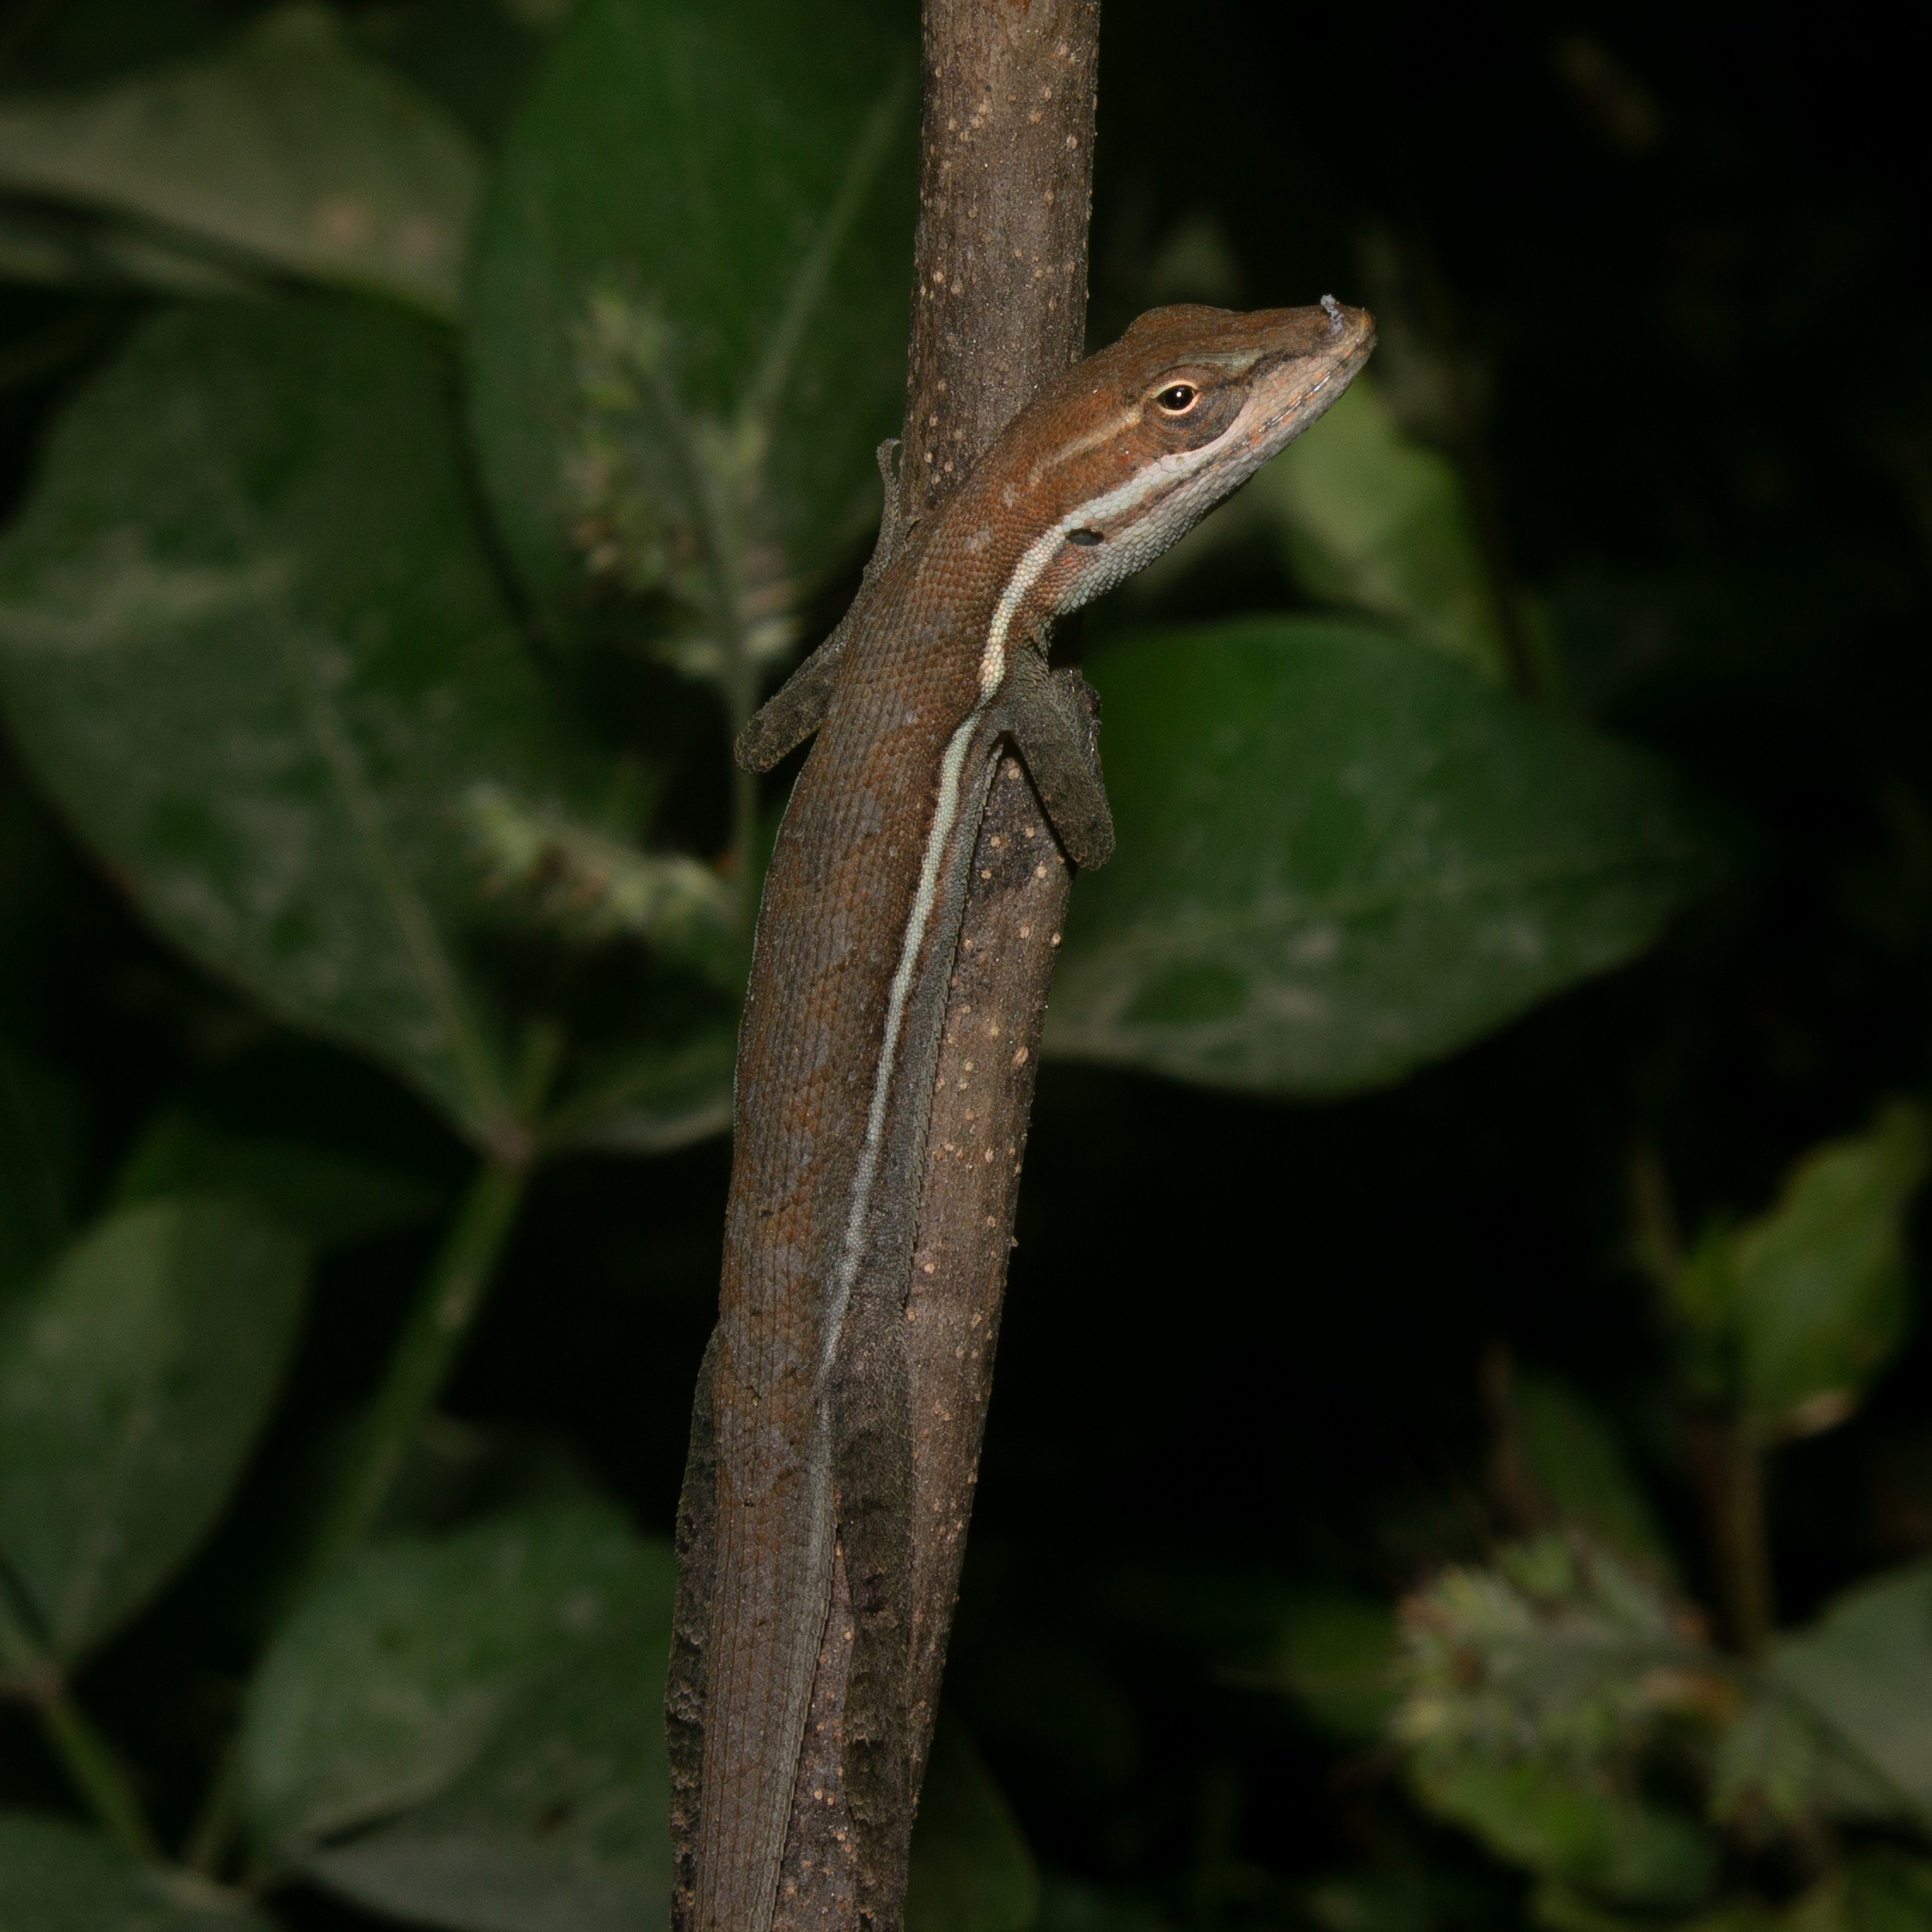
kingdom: Animalia
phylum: Chordata
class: Squamata
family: Dactyloidae
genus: Anolis
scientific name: Anolis auratus
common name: Grass anole
